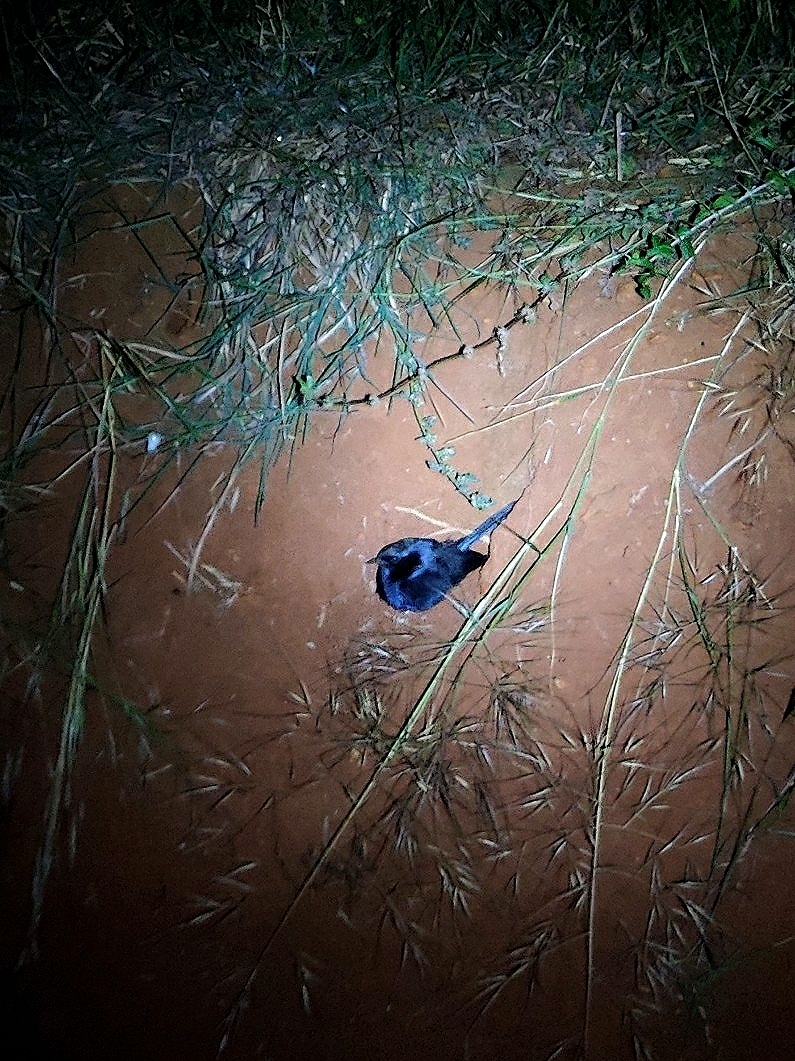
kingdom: Animalia
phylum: Chordata
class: Aves
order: Passeriformes
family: Muscicapidae
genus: Saxicoloides
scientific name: Saxicoloides fulicatus
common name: Indian robin
